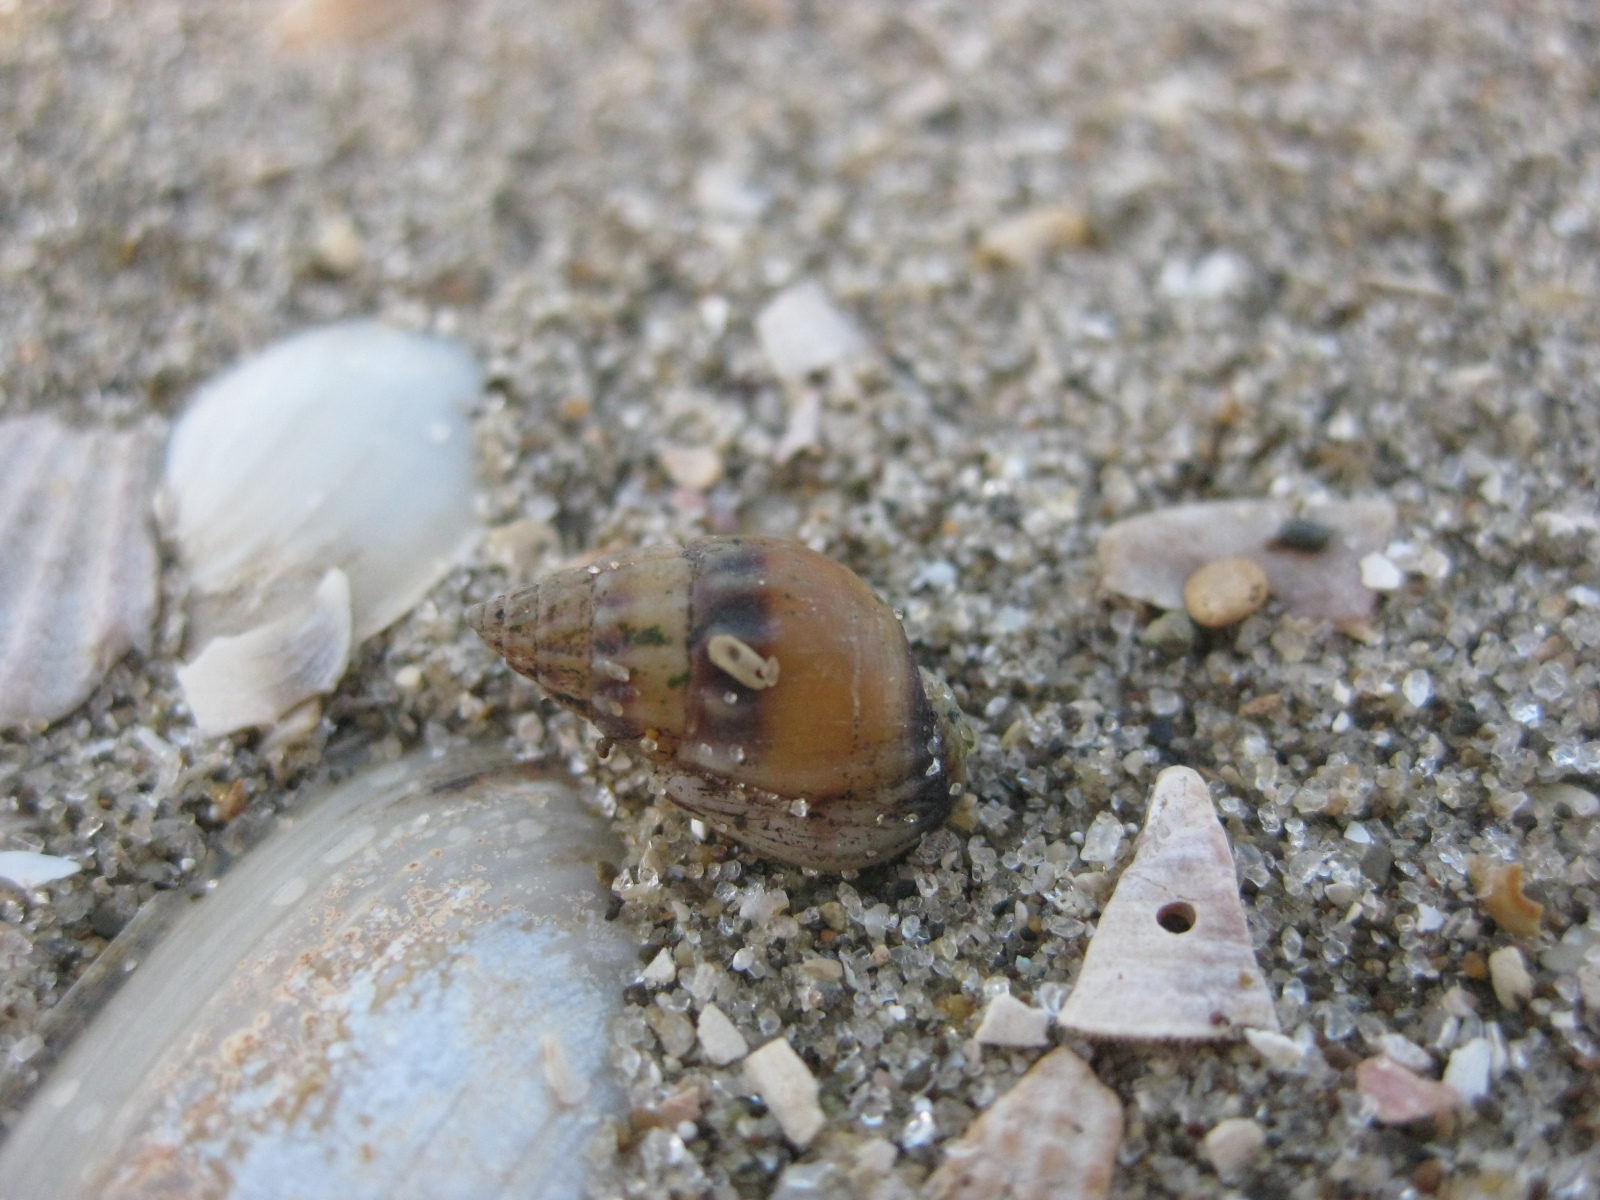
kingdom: Animalia
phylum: Mollusca
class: Gastropoda
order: Neogastropoda
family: Nassariidae
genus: Tritia
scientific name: Tritia burchardi
